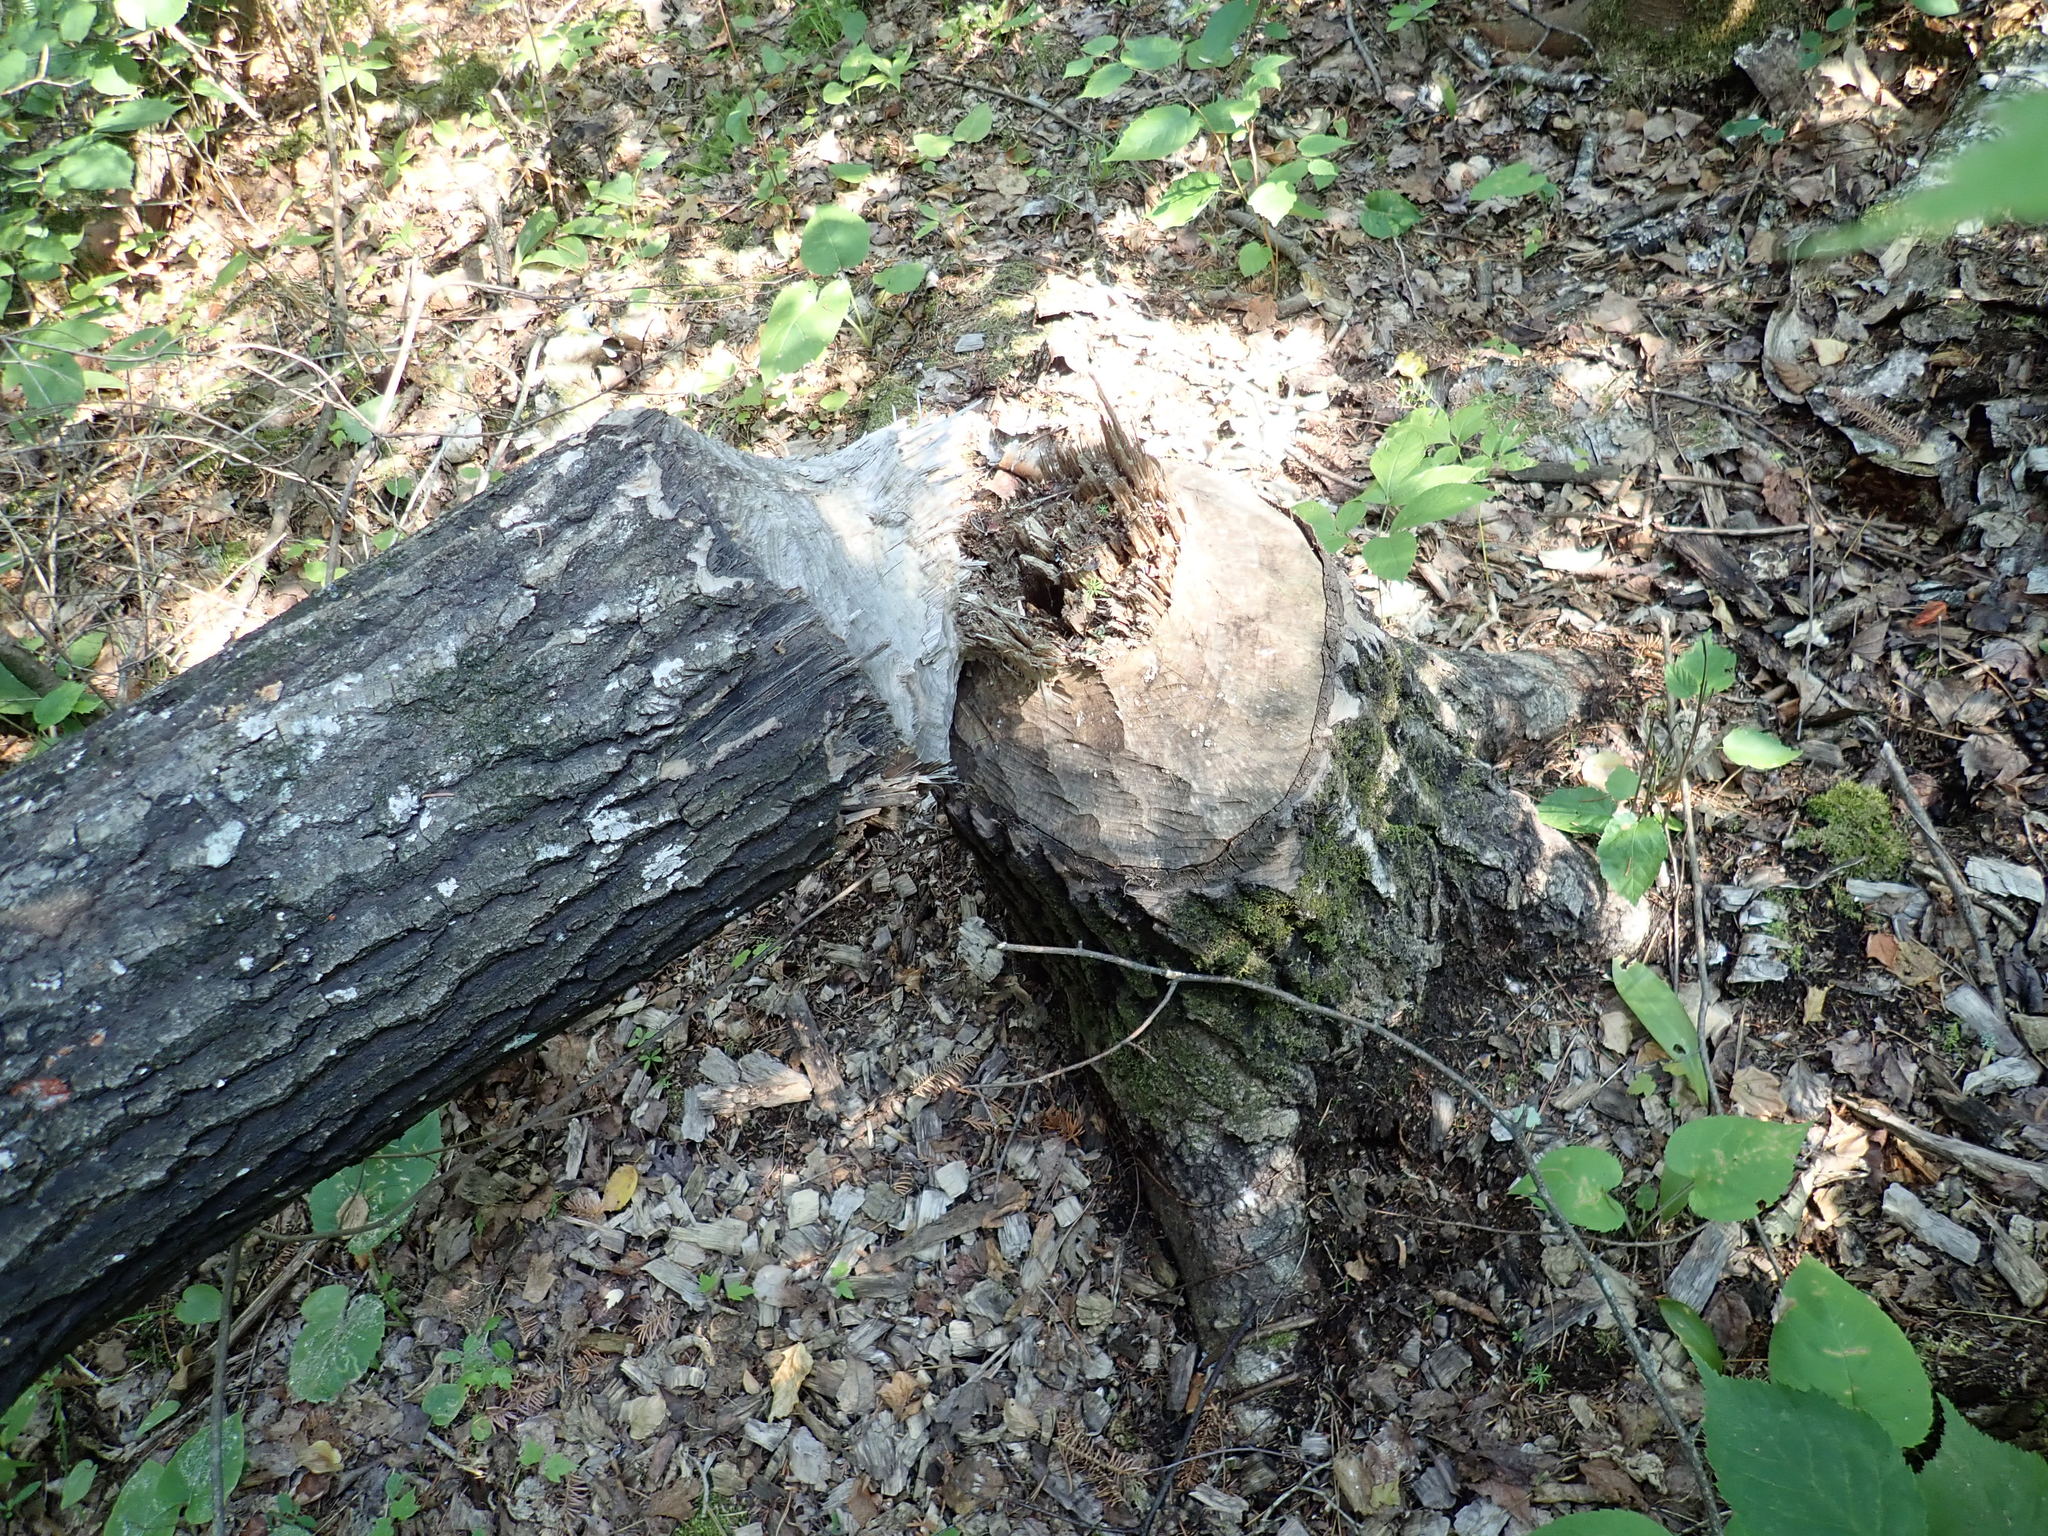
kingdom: Animalia
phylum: Chordata
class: Mammalia
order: Rodentia
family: Castoridae
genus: Castor
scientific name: Castor canadensis
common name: American beaver
